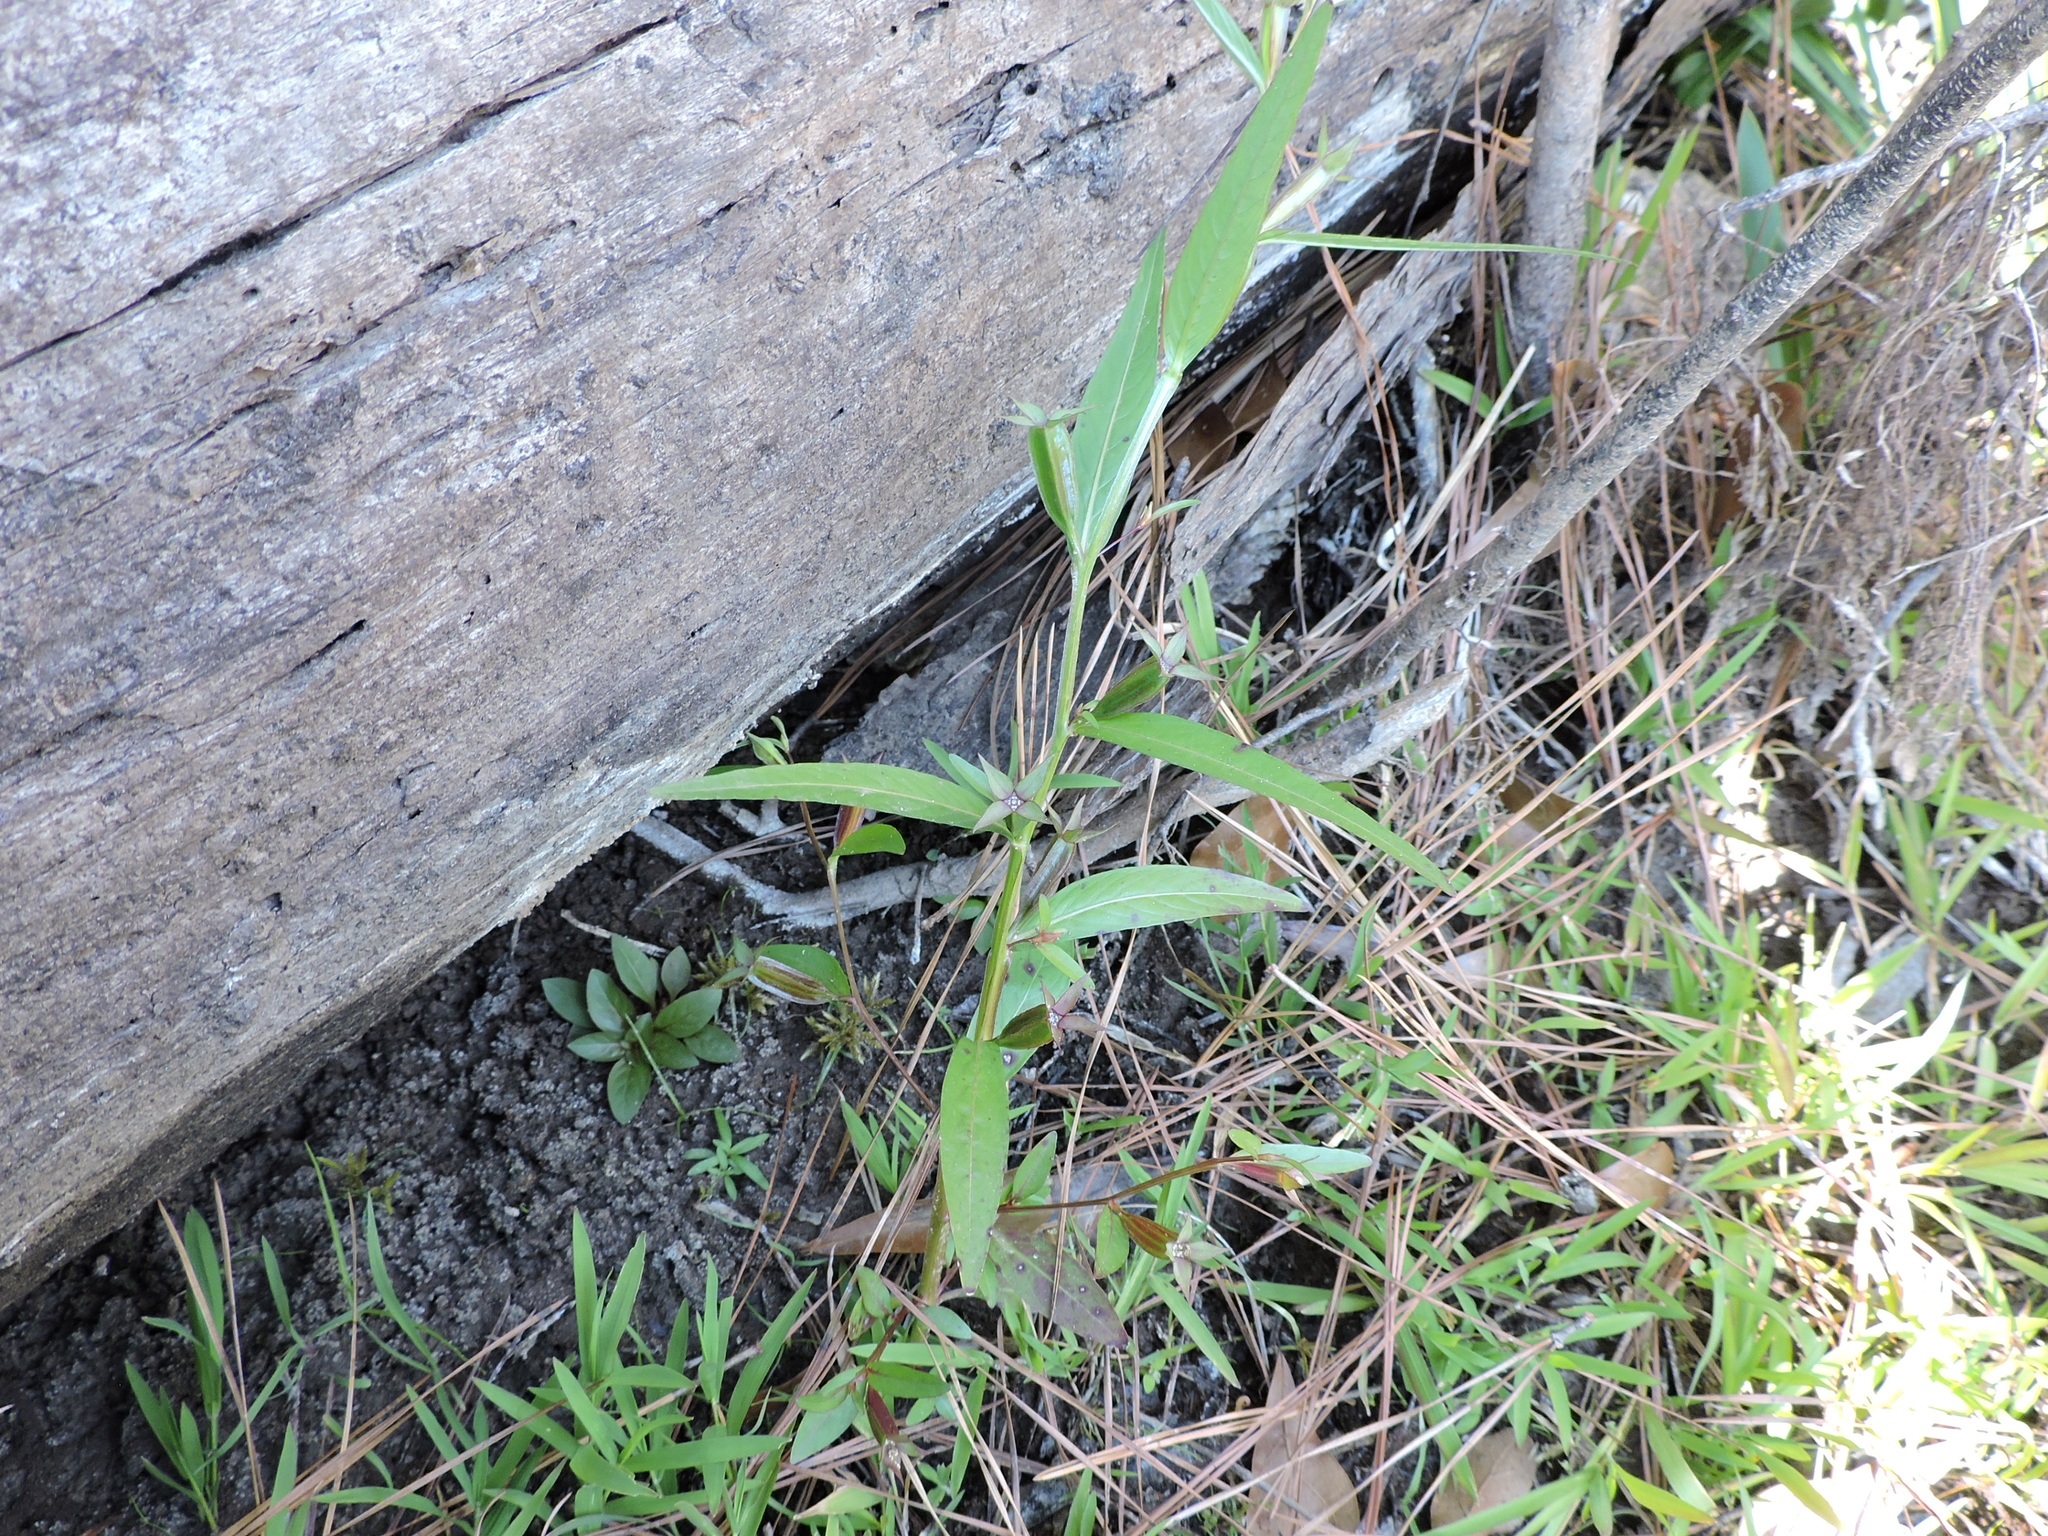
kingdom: Plantae
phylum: Tracheophyta
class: Magnoliopsida
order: Myrtales
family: Onagraceae
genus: Ludwigia
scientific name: Ludwigia decurrens
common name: Winged water-primrose
